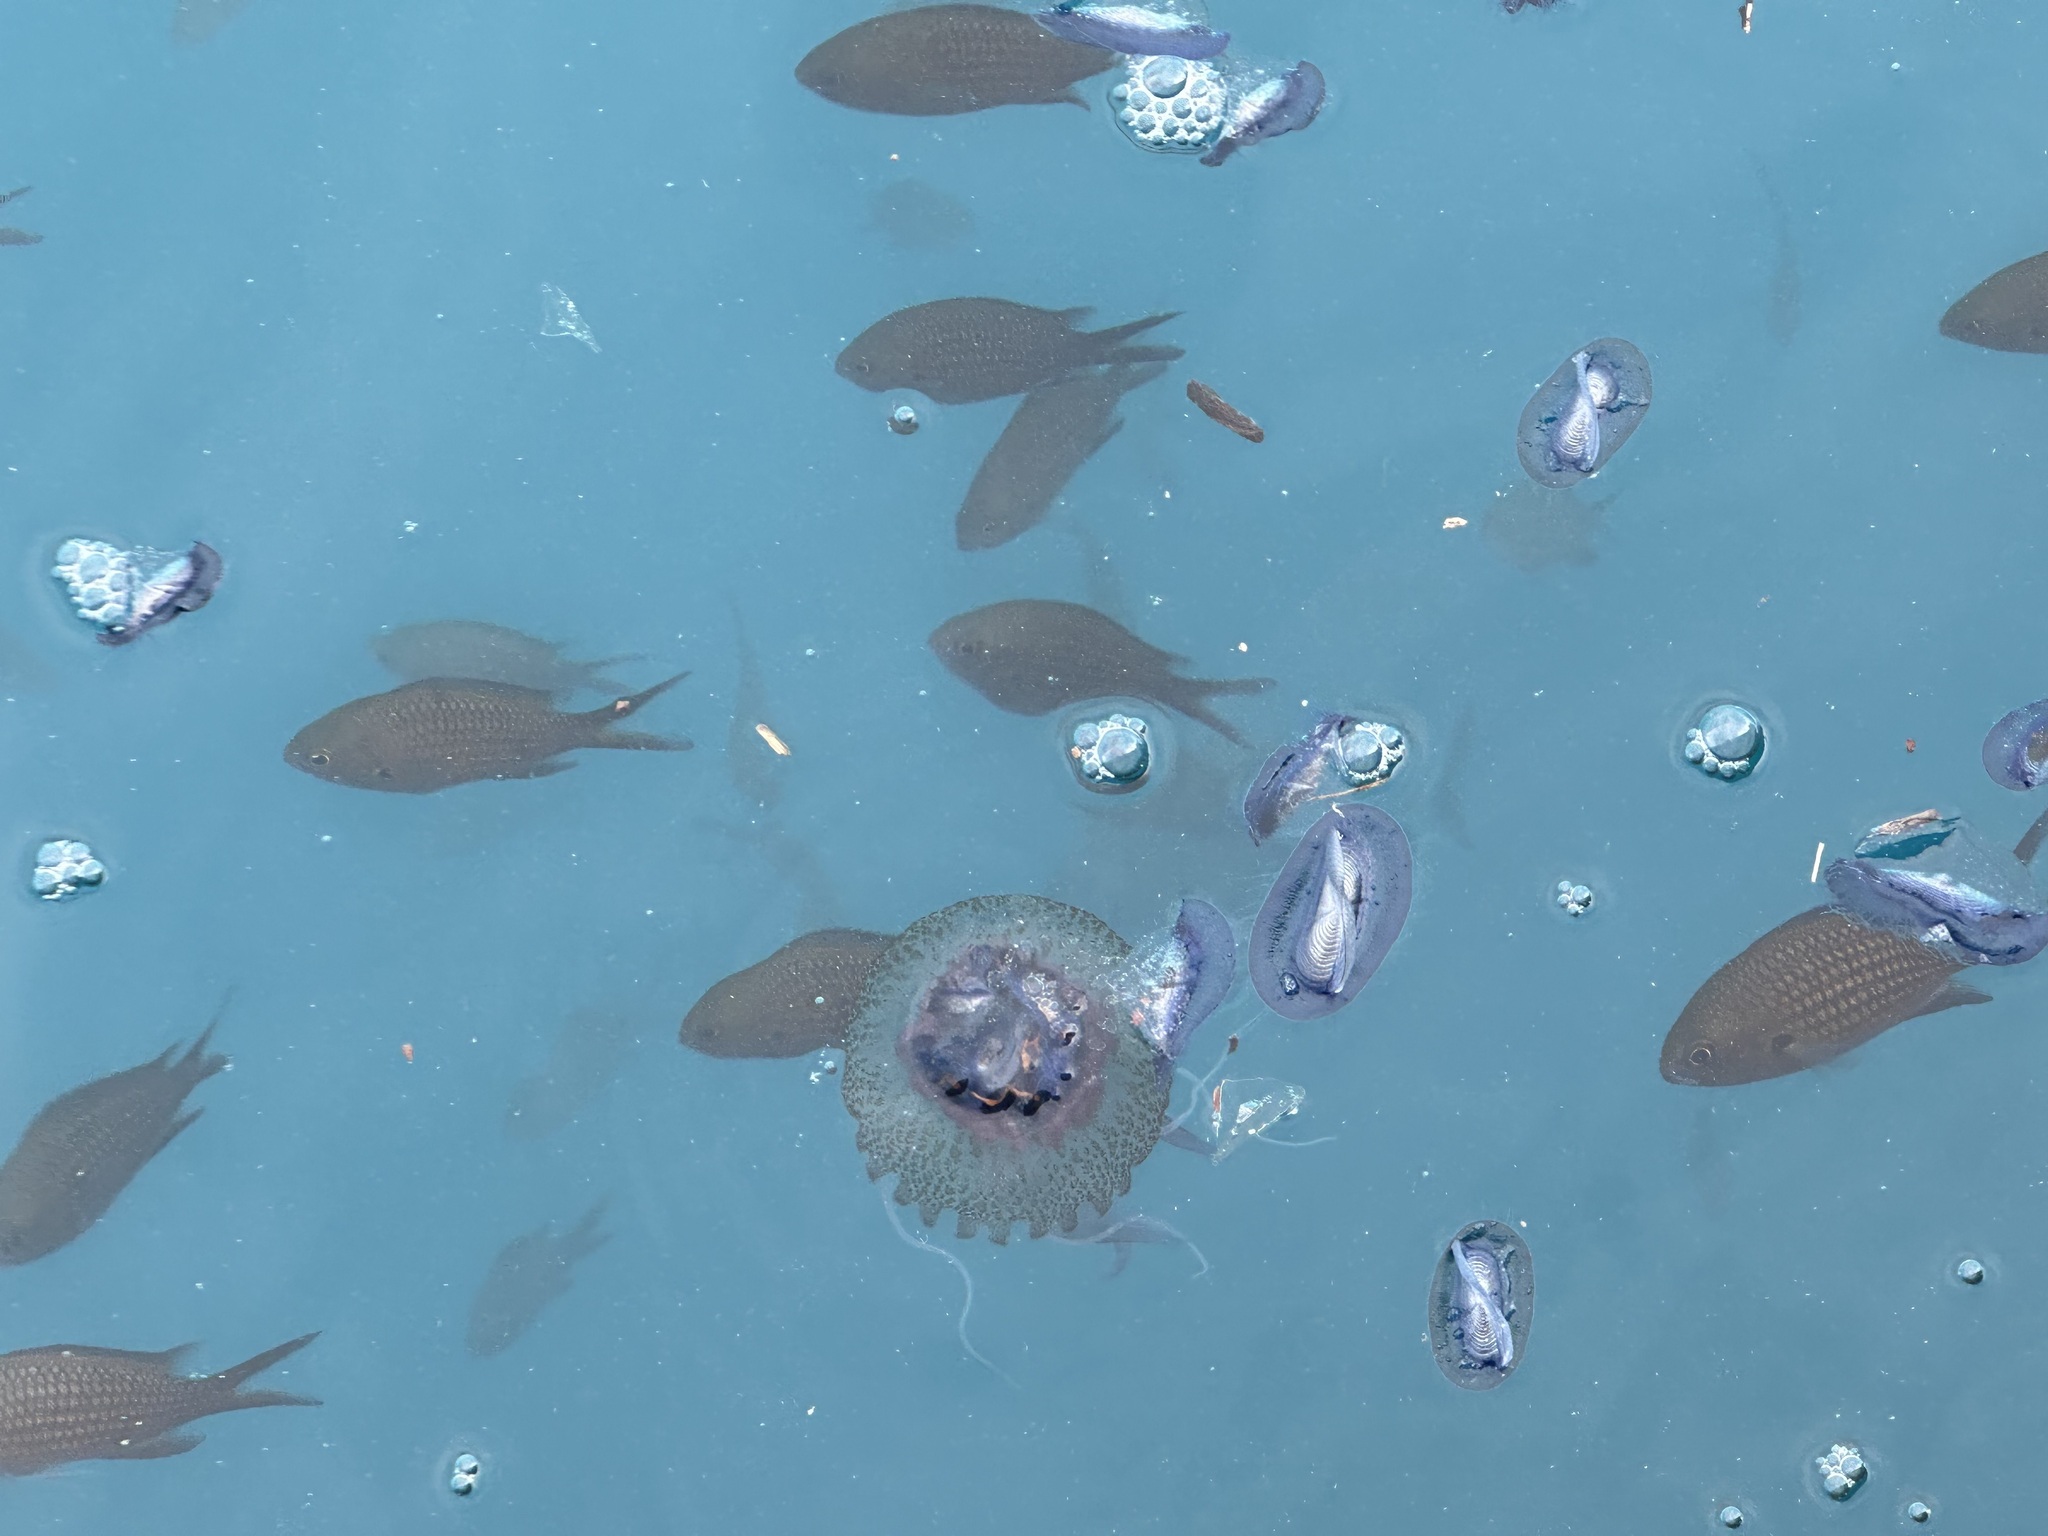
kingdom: Animalia
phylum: Chordata
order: Perciformes
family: Pomacentridae
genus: Chromis
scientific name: Chromis chromis
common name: Damselfish
